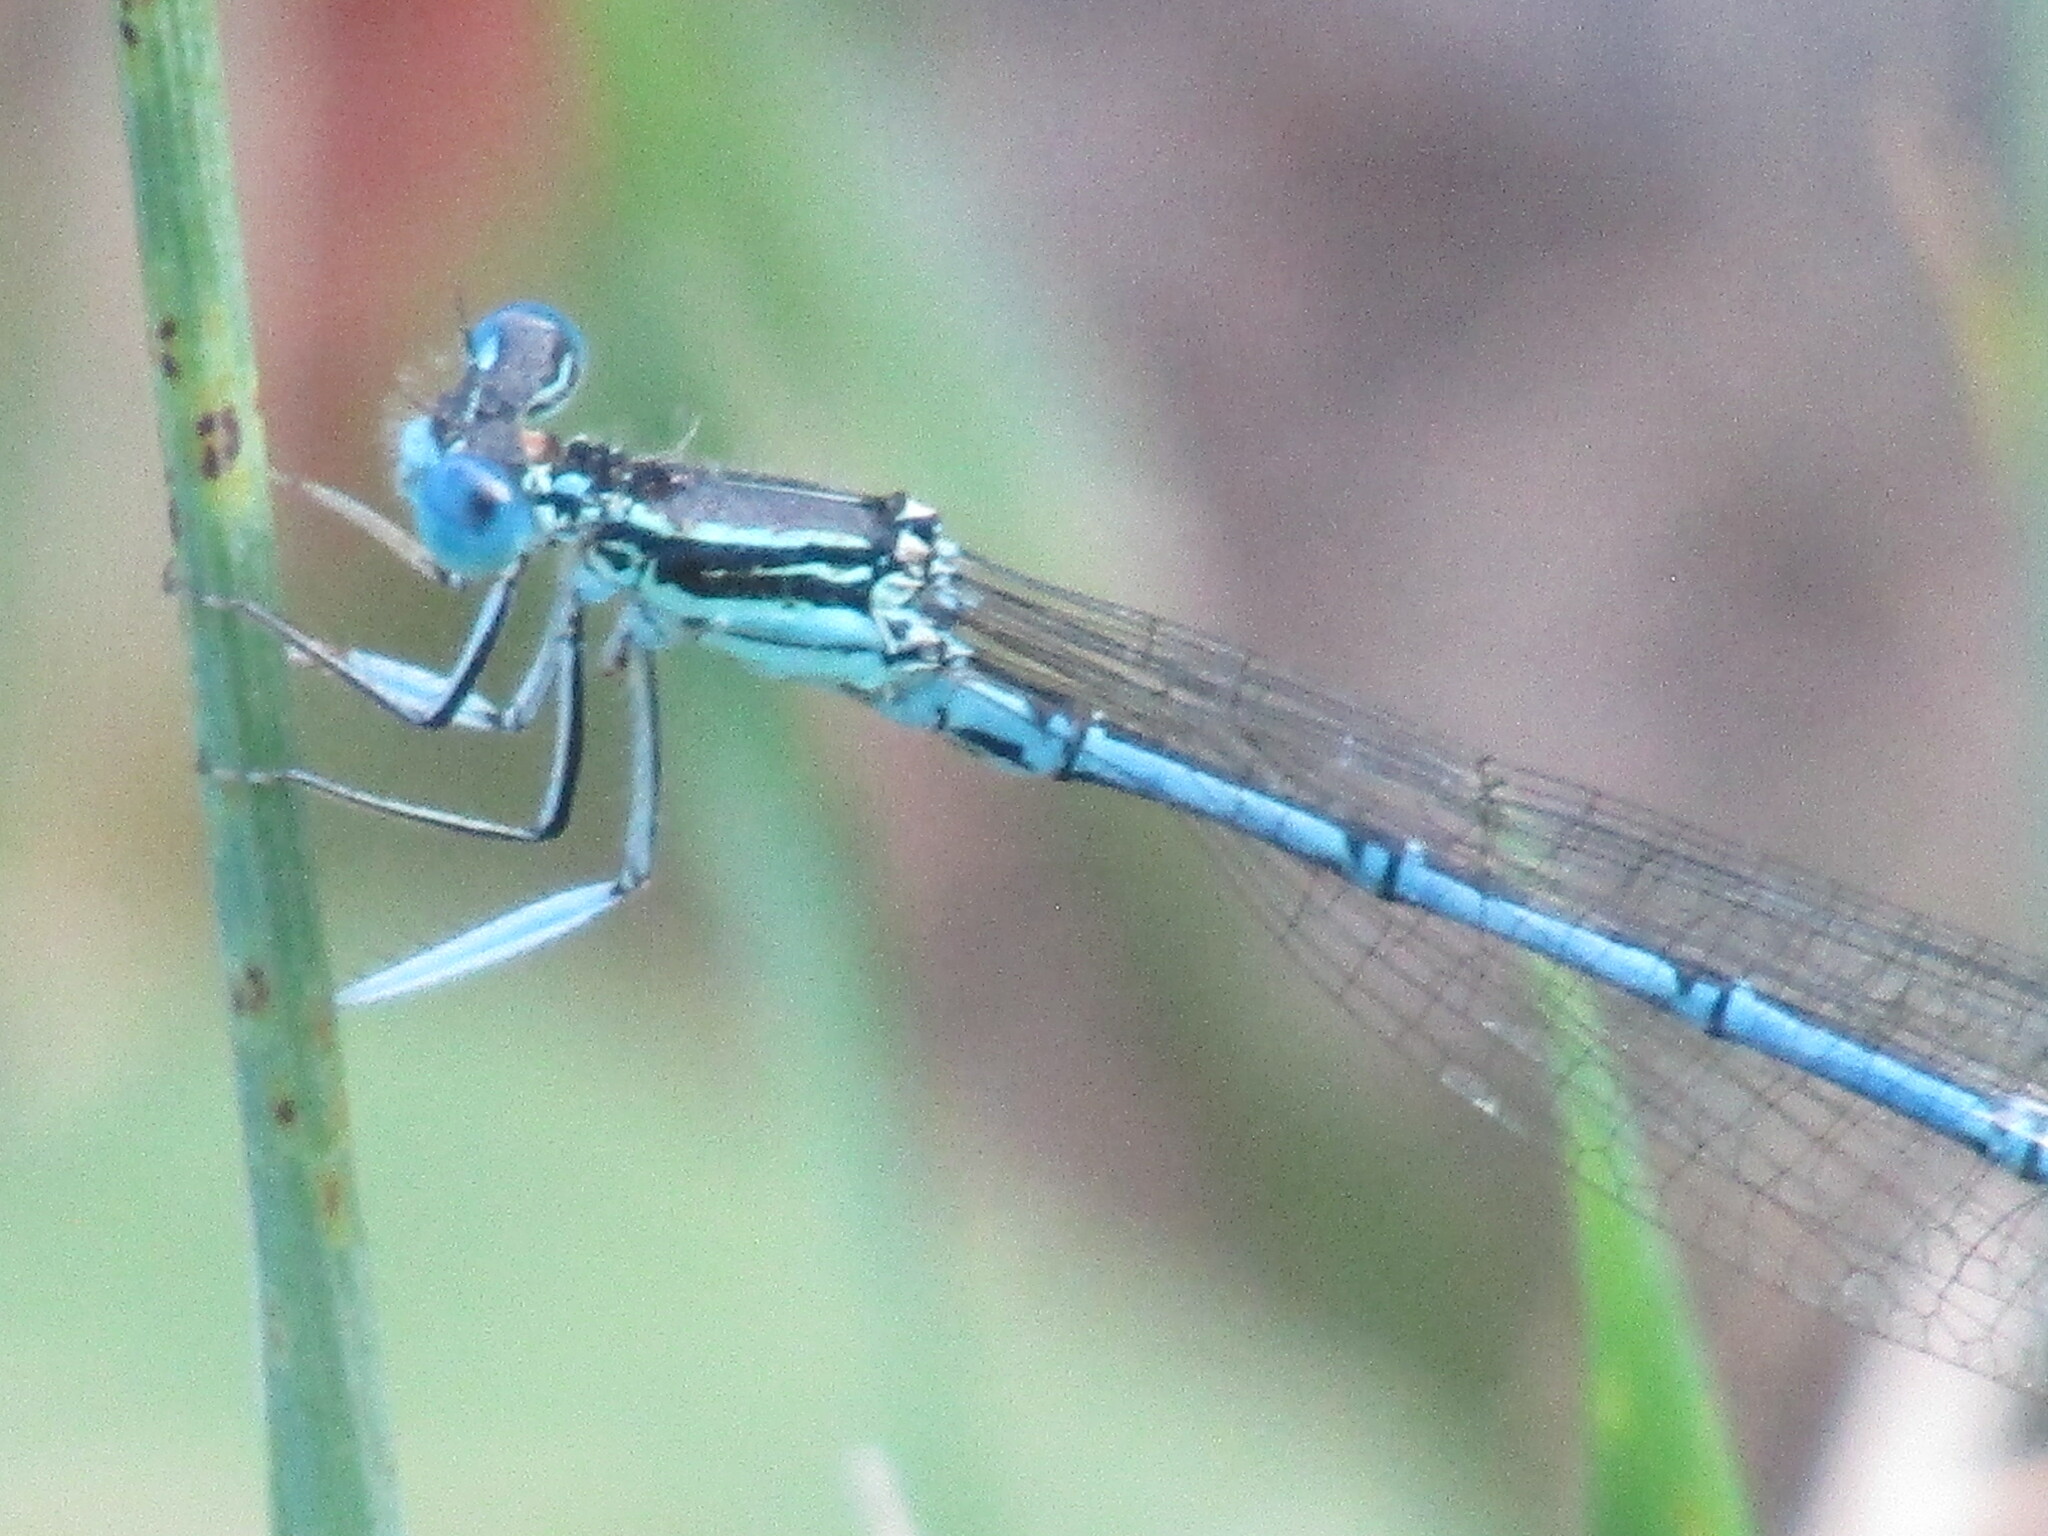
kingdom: Animalia
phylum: Arthropoda
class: Insecta
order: Odonata
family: Platycnemididae
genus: Platycnemis
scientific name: Platycnemis pennipes
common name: White-legged damselfly
